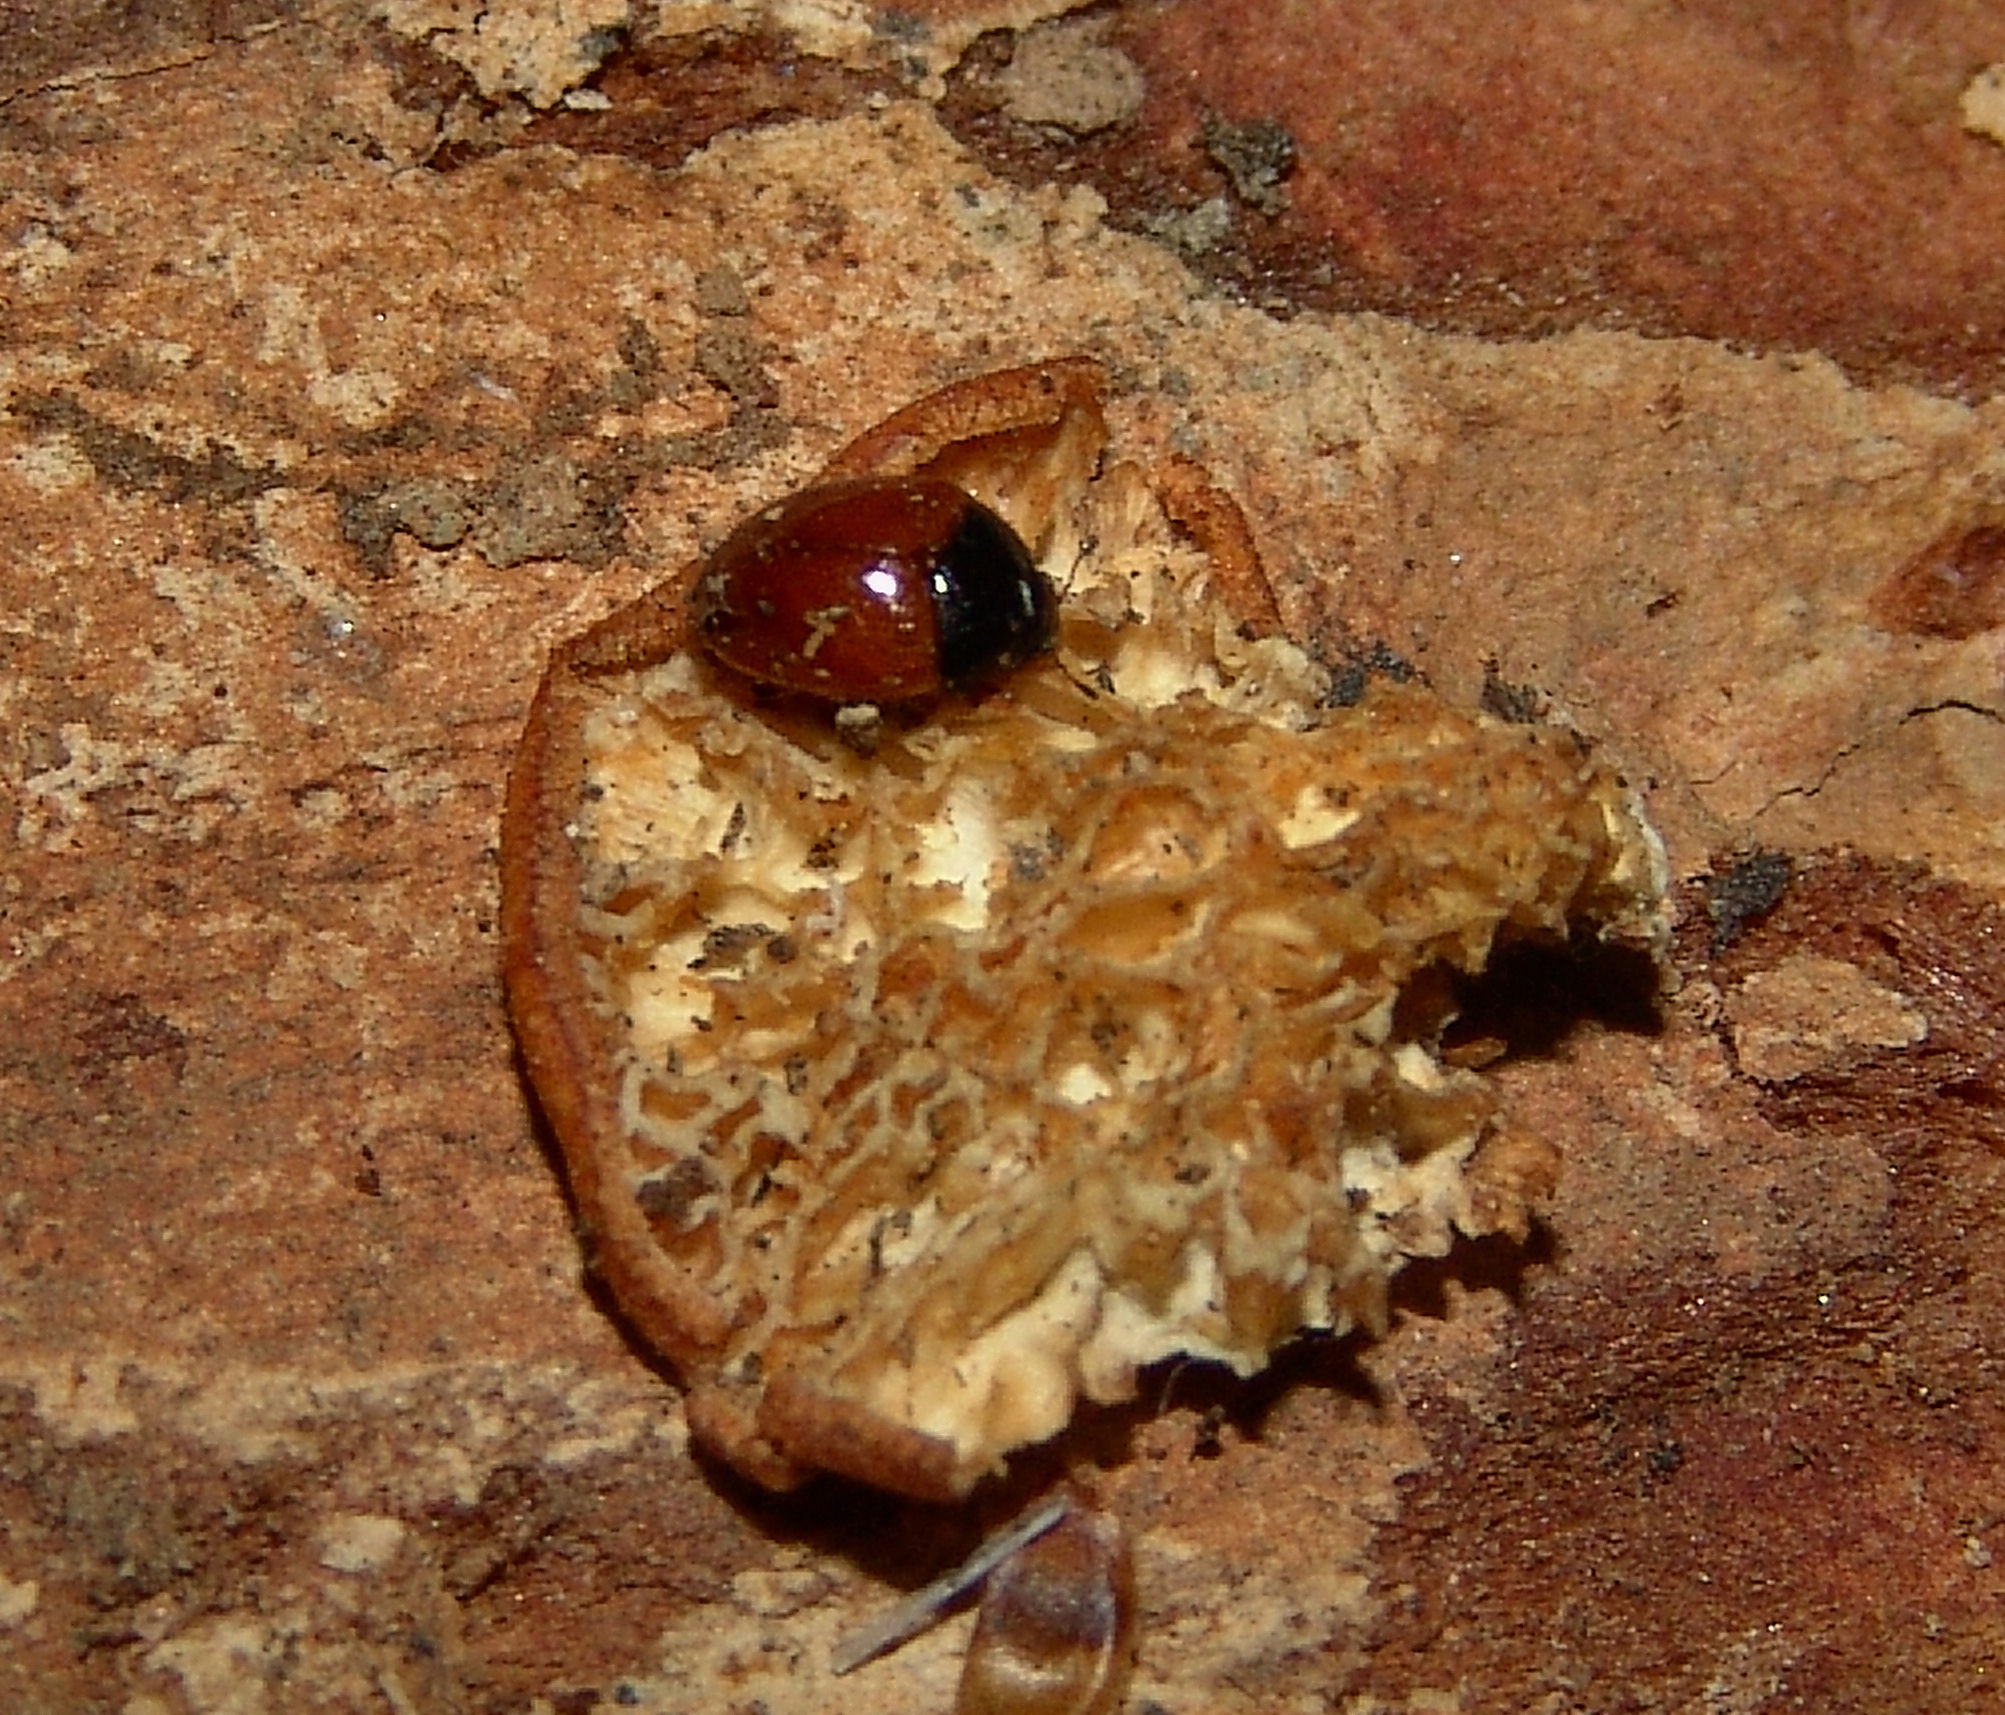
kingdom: Animalia
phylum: Arthropoda
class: Insecta
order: Coleoptera
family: Erotylidae
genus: Tritoma
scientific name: Tritoma sanguinipennis
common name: Red-winged tritoma
